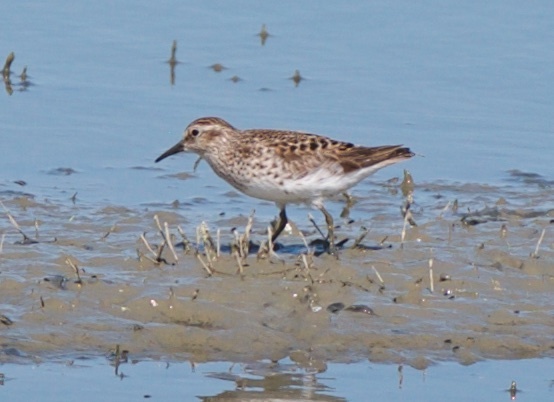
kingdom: Animalia
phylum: Chordata
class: Aves
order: Charadriiformes
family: Scolopacidae
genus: Calidris
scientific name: Calidris minutilla
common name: Least sandpiper
